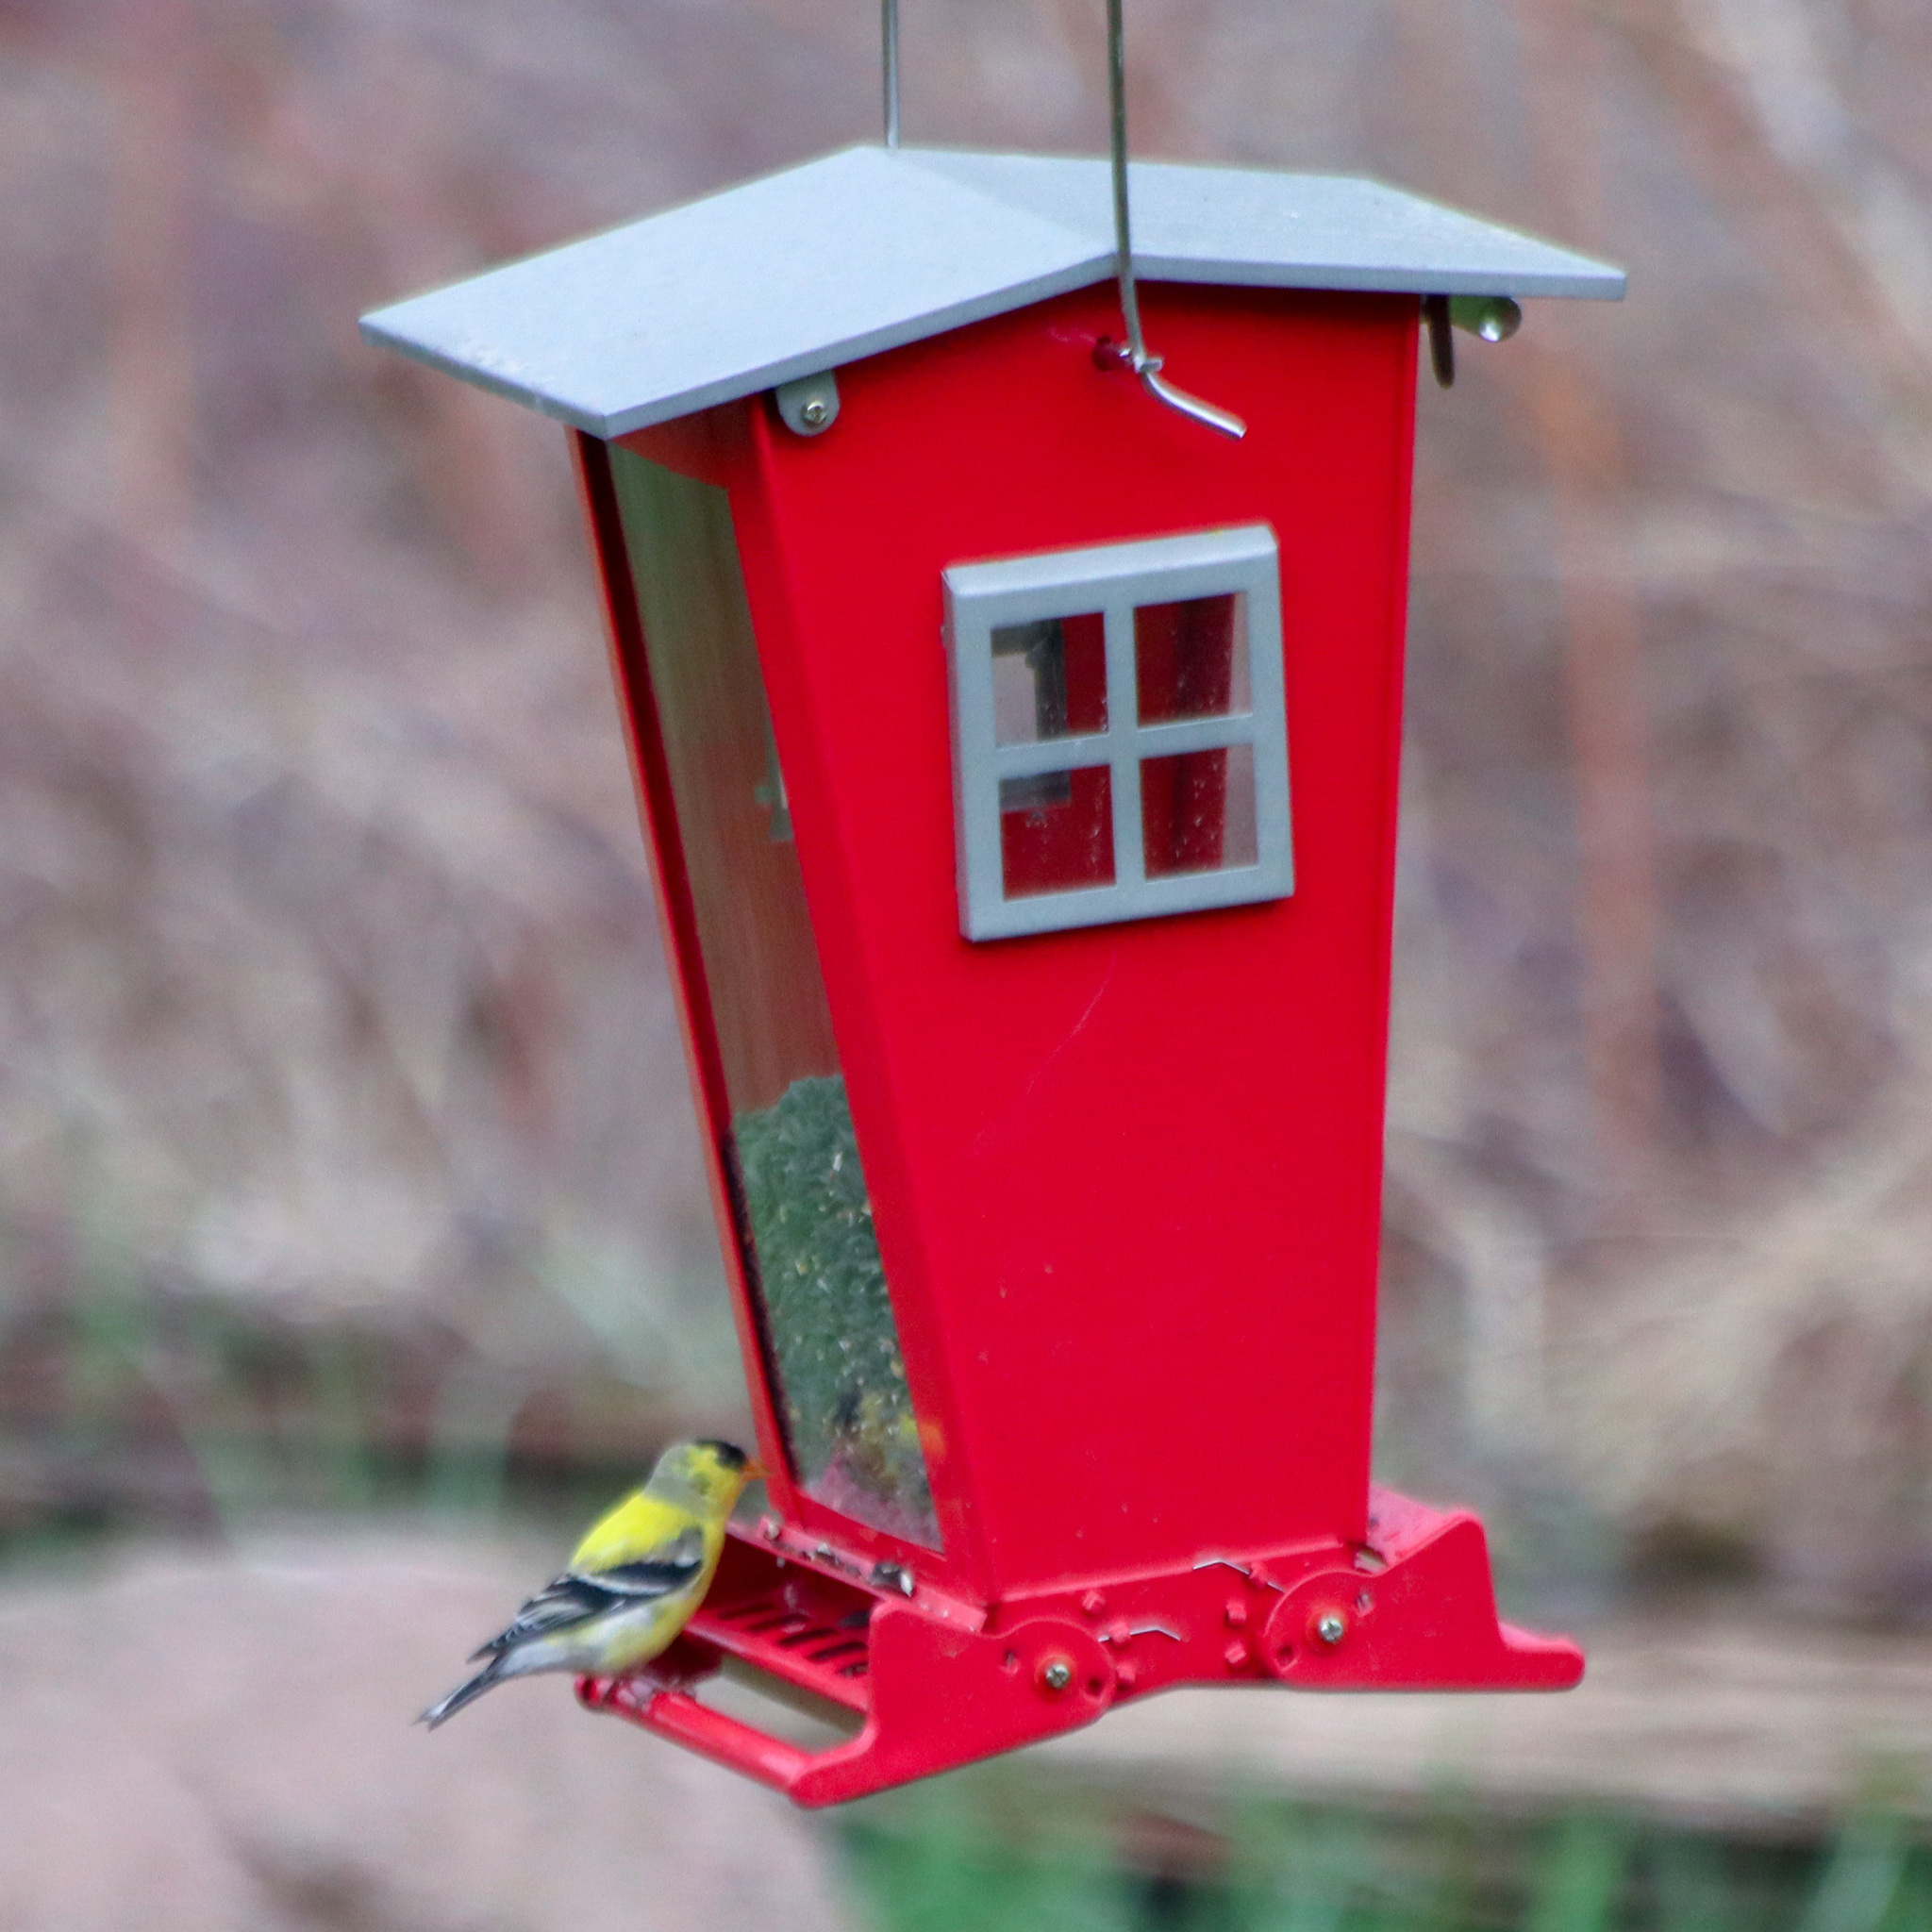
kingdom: Animalia
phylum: Chordata
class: Aves
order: Passeriformes
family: Fringillidae
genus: Spinus
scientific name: Spinus tristis
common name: American goldfinch
